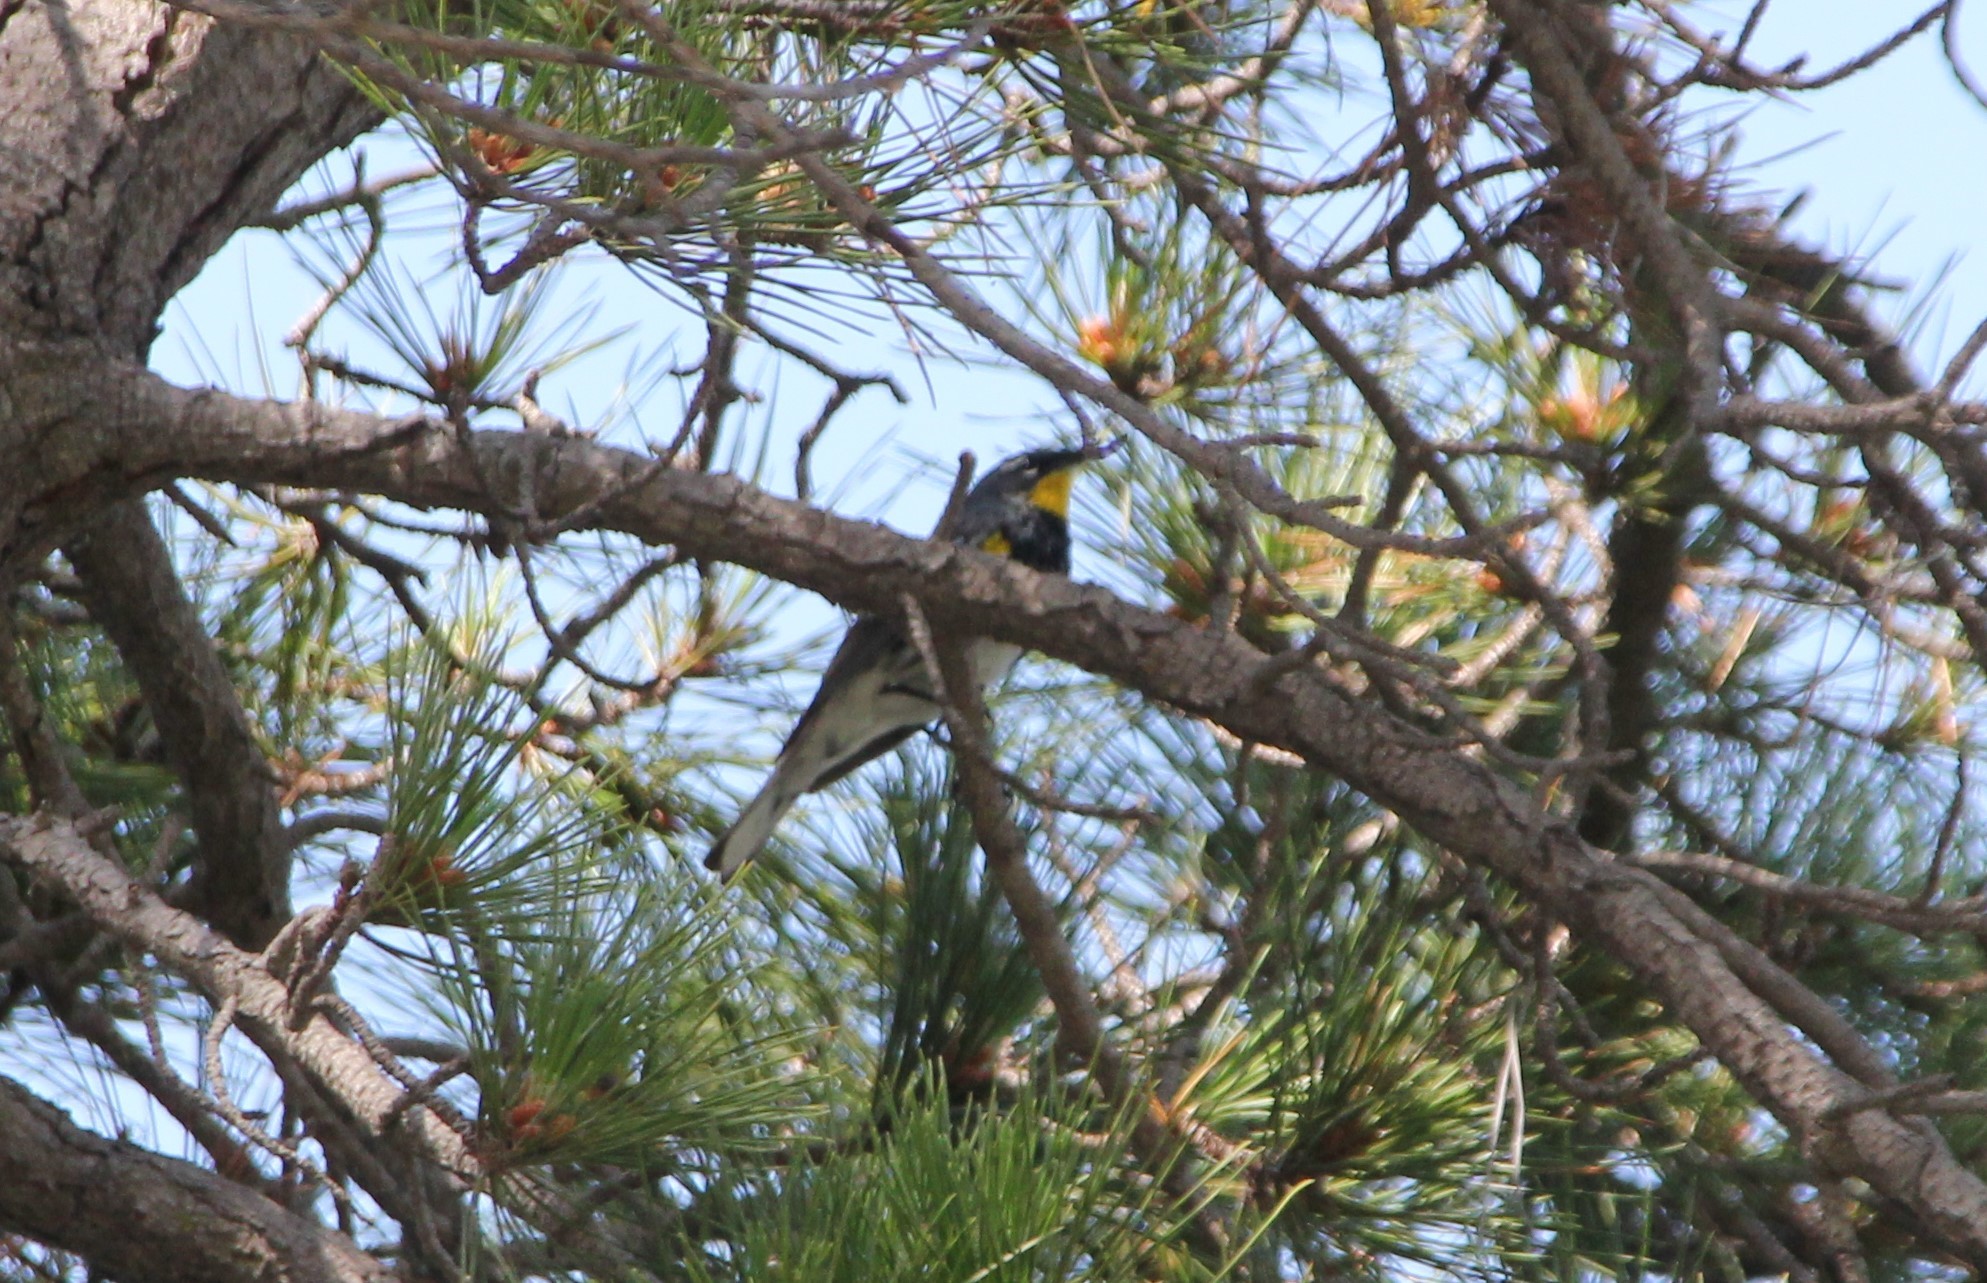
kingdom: Animalia
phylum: Chordata
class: Aves
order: Passeriformes
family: Parulidae
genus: Setophaga
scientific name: Setophaga auduboni
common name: Audubon's warbler
